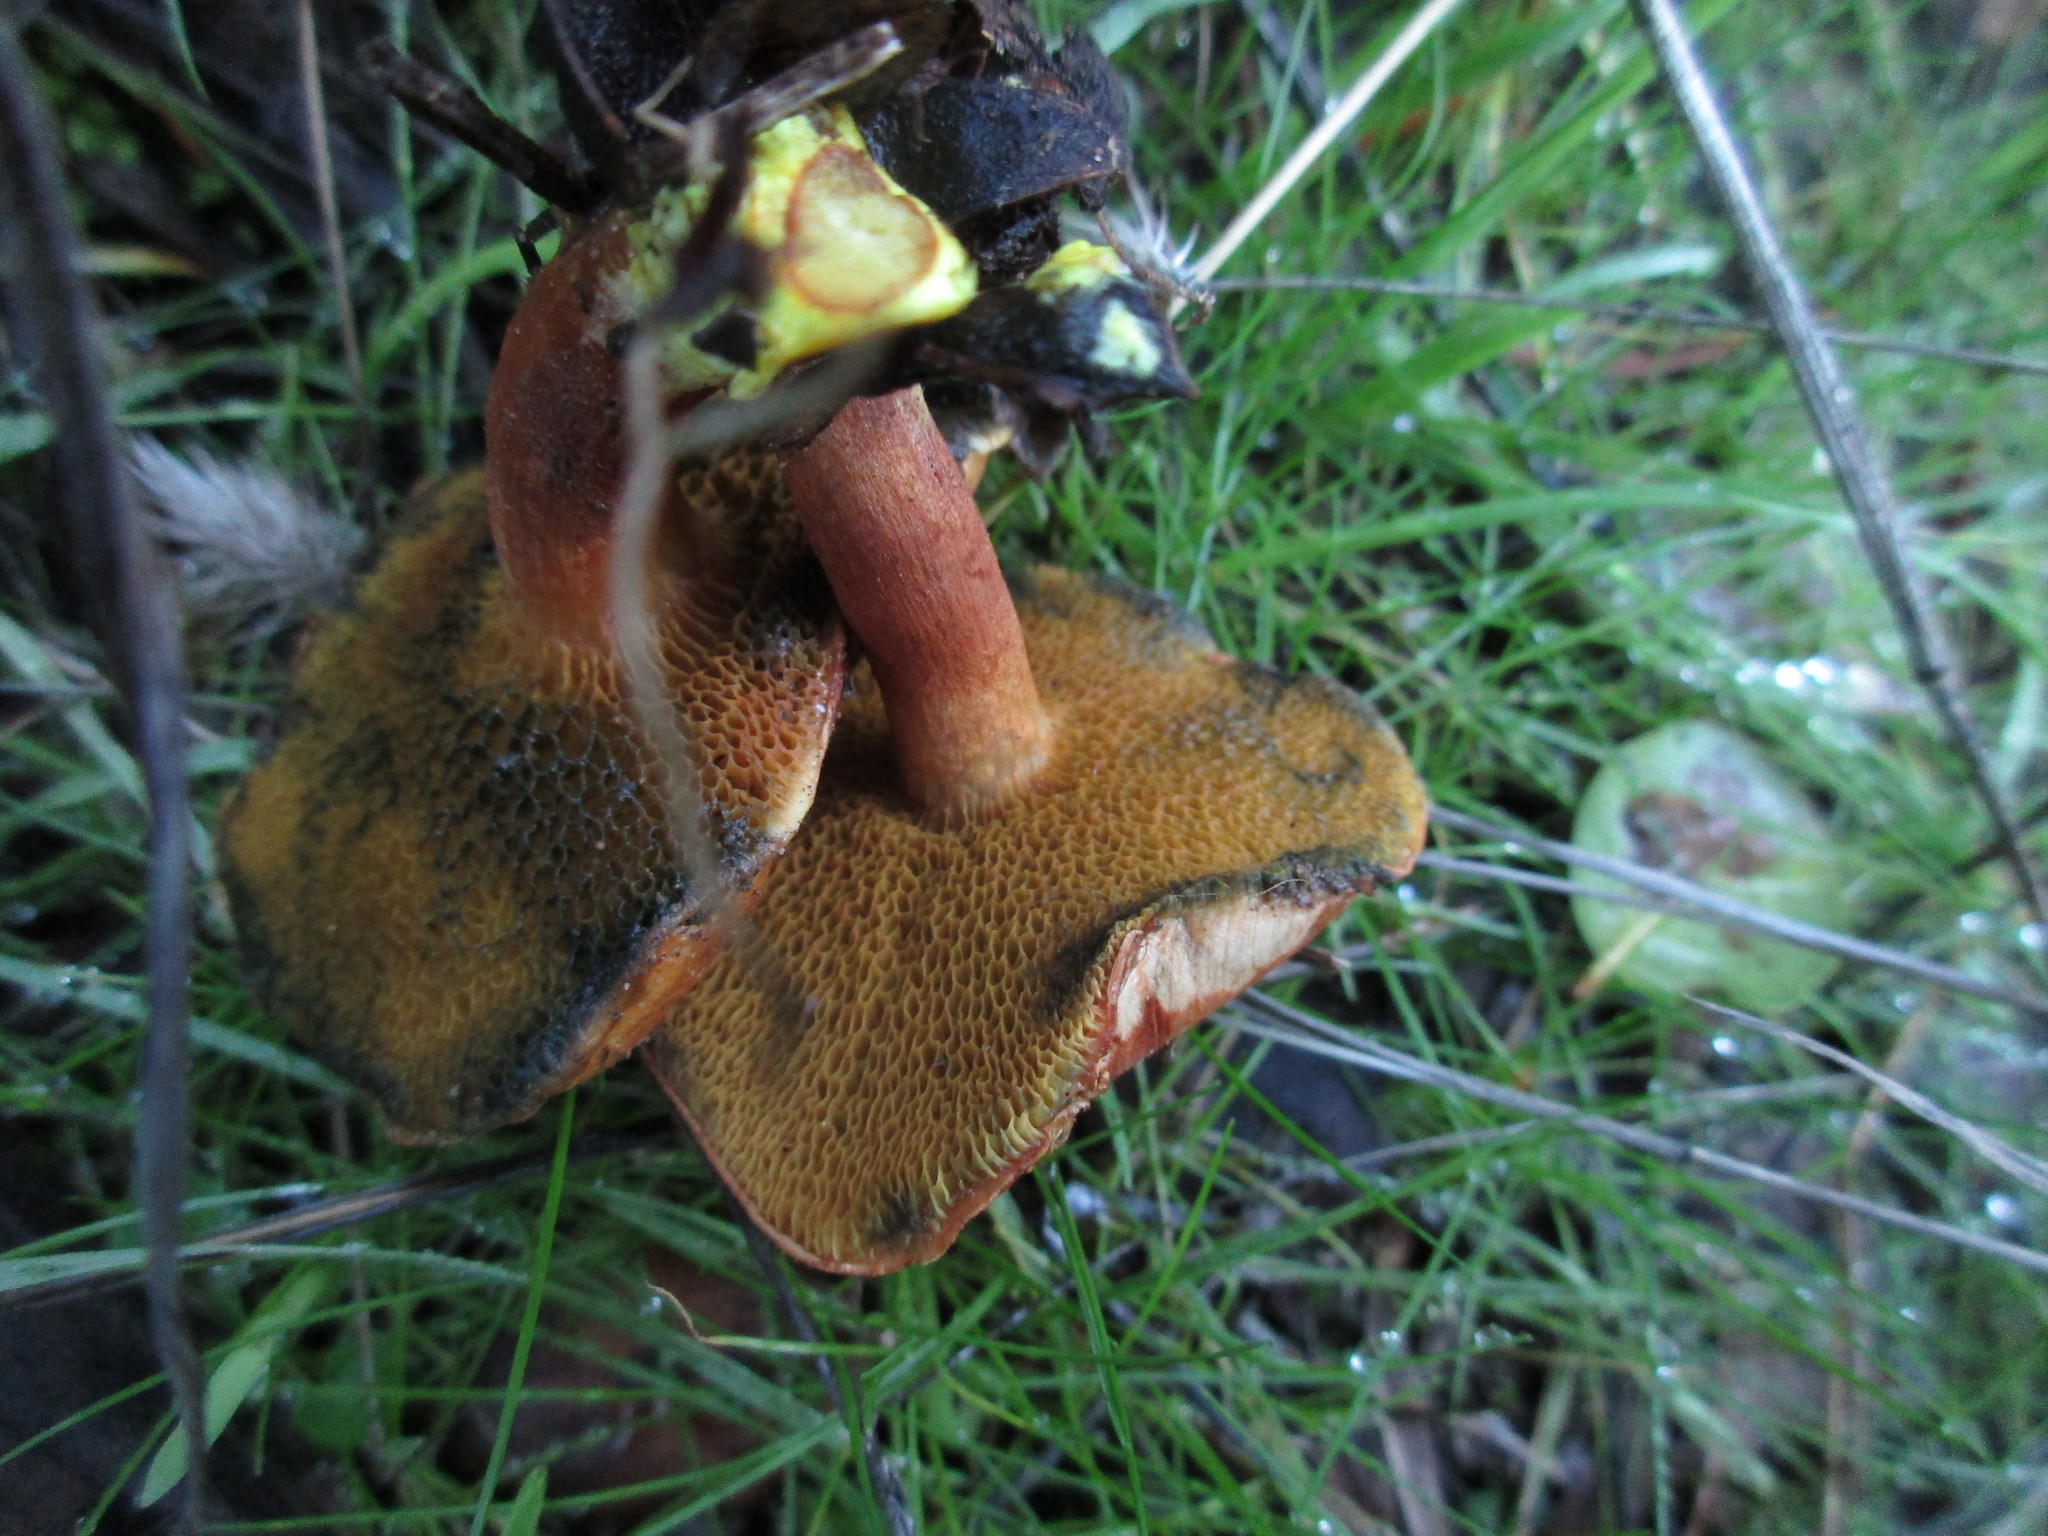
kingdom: Fungi
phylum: Basidiomycota
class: Agaricomycetes
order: Boletales
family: Boletaceae
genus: Chalciporus
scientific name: Chalciporus piperatoides
